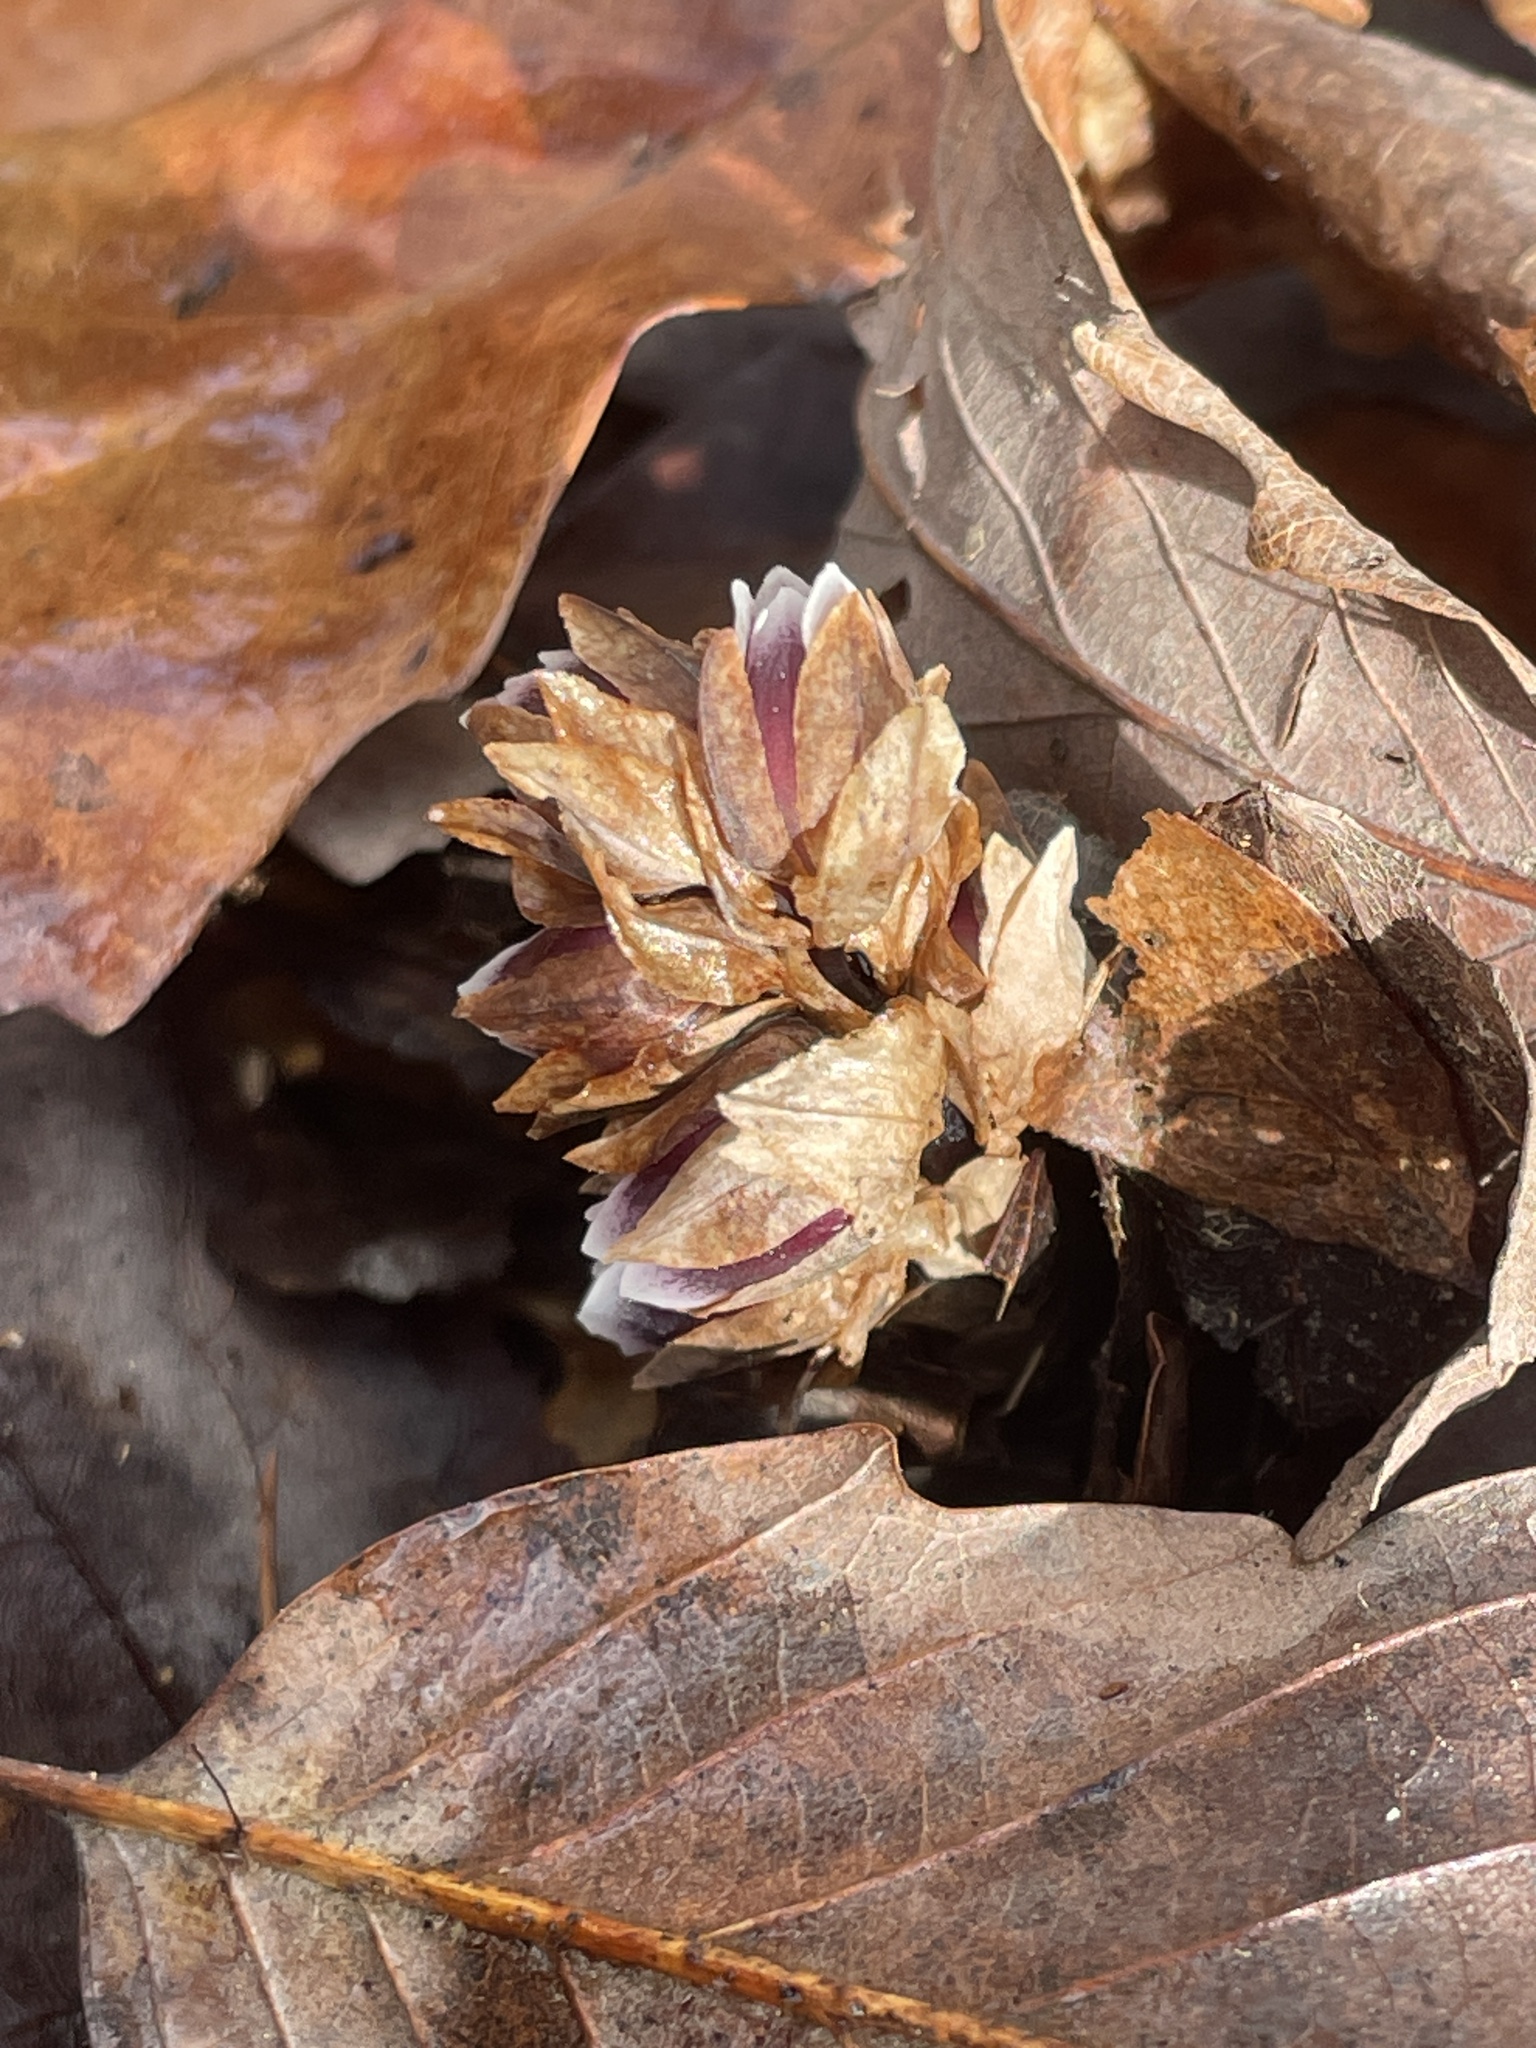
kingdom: Plantae
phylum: Tracheophyta
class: Magnoliopsida
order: Ericales
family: Ericaceae
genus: Monotropsis
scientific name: Monotropsis odorata
